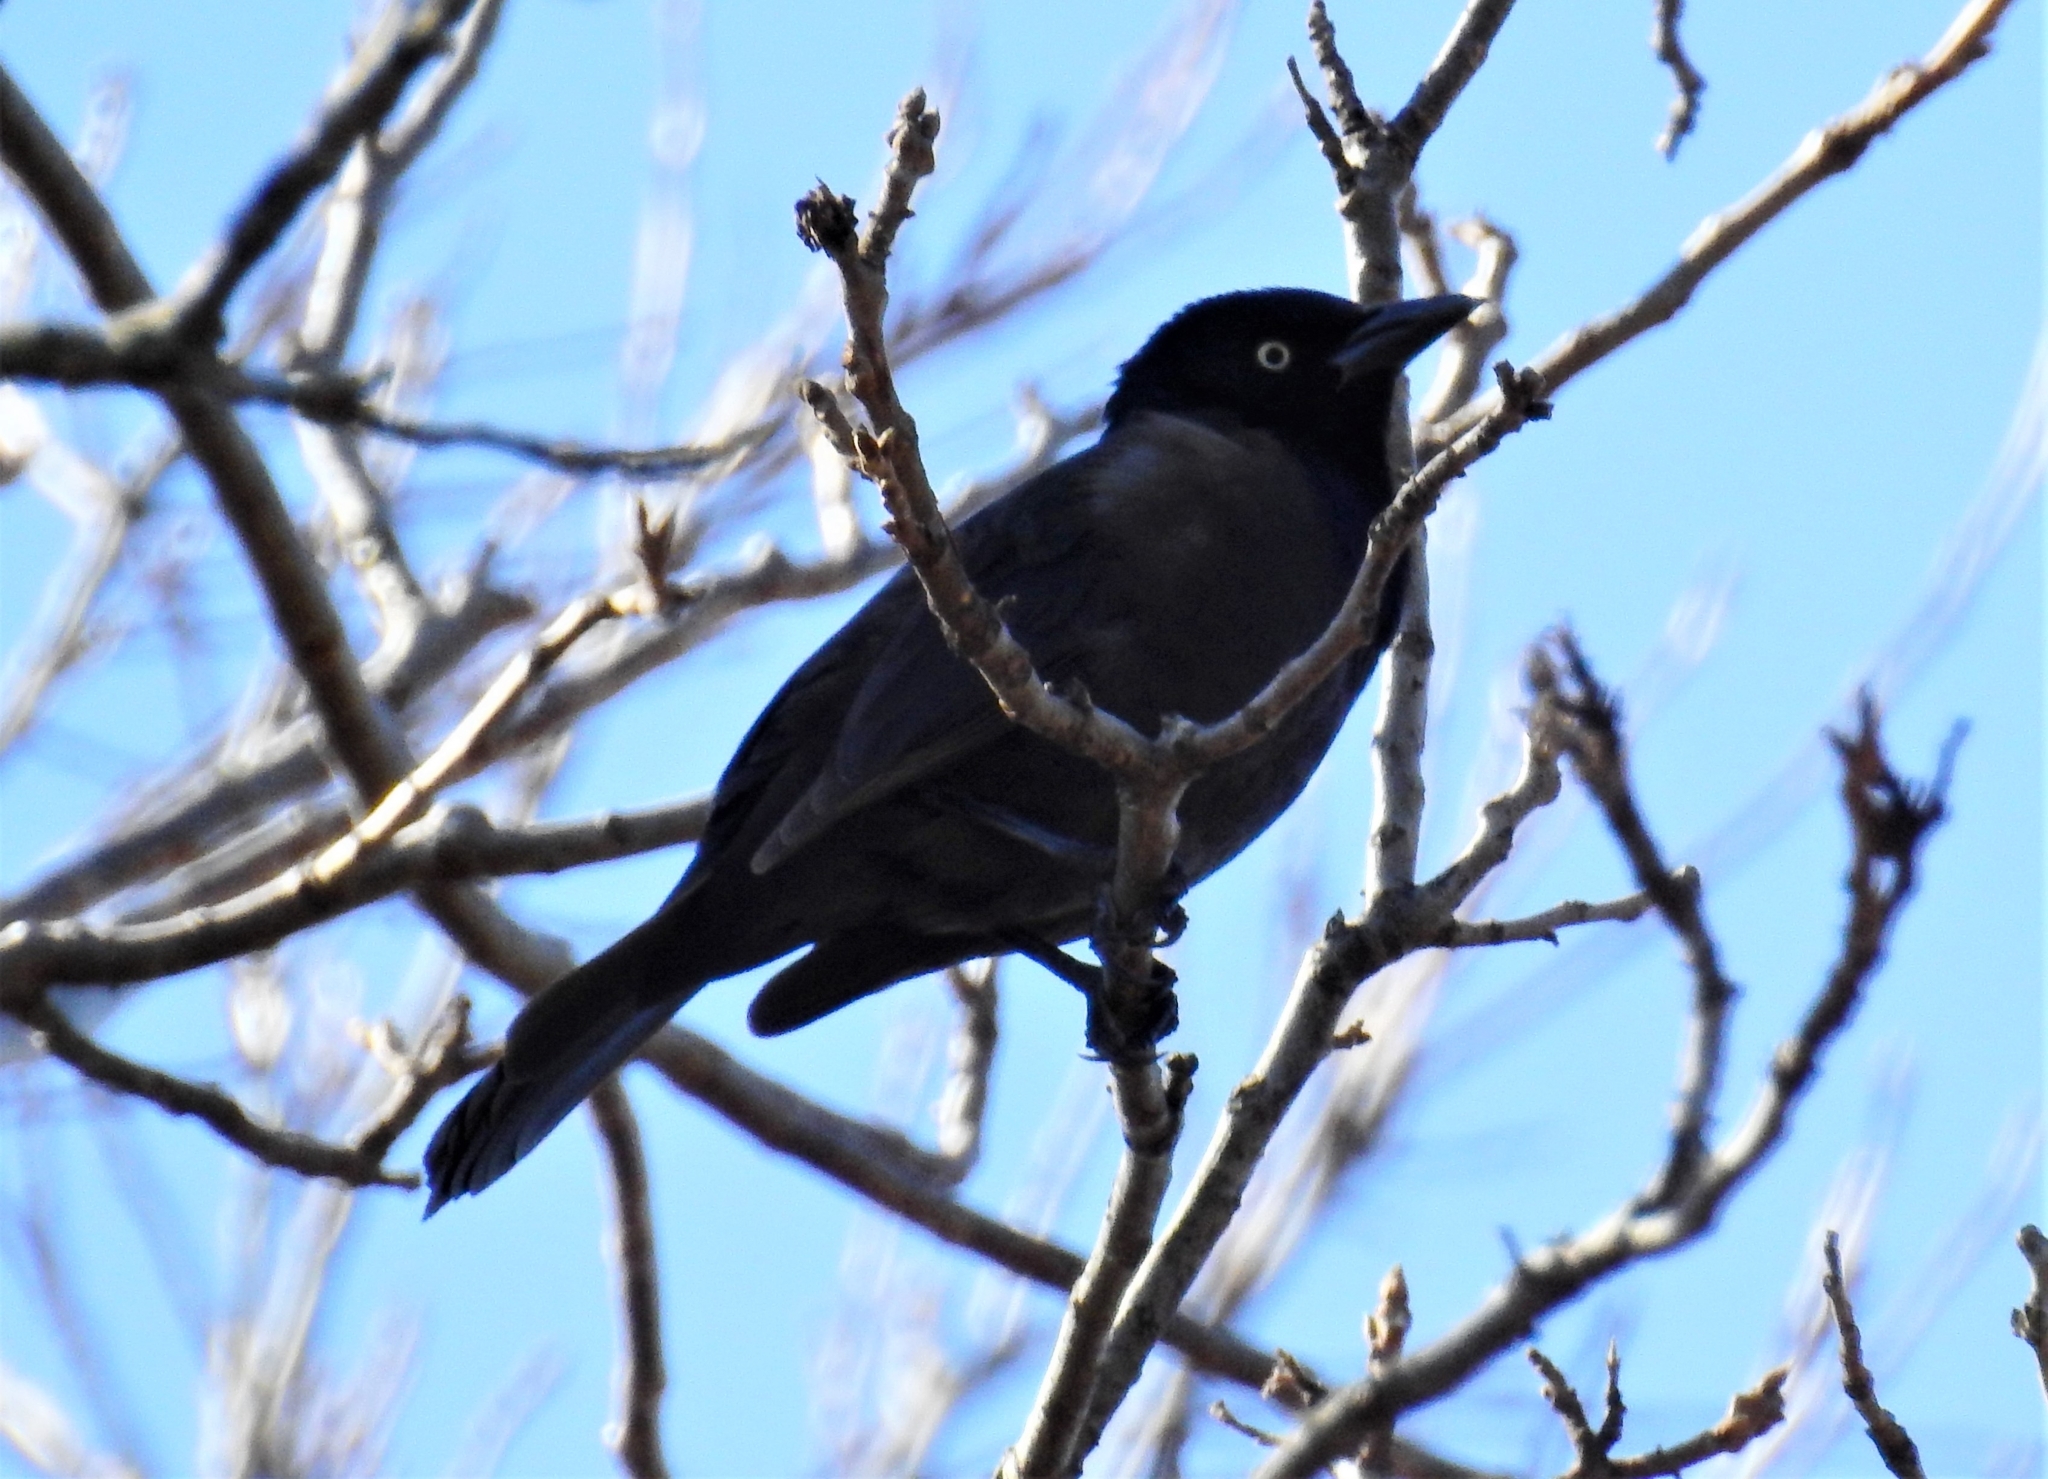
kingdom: Animalia
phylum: Chordata
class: Aves
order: Passeriformes
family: Icteridae
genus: Quiscalus
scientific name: Quiscalus quiscula
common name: Common grackle
